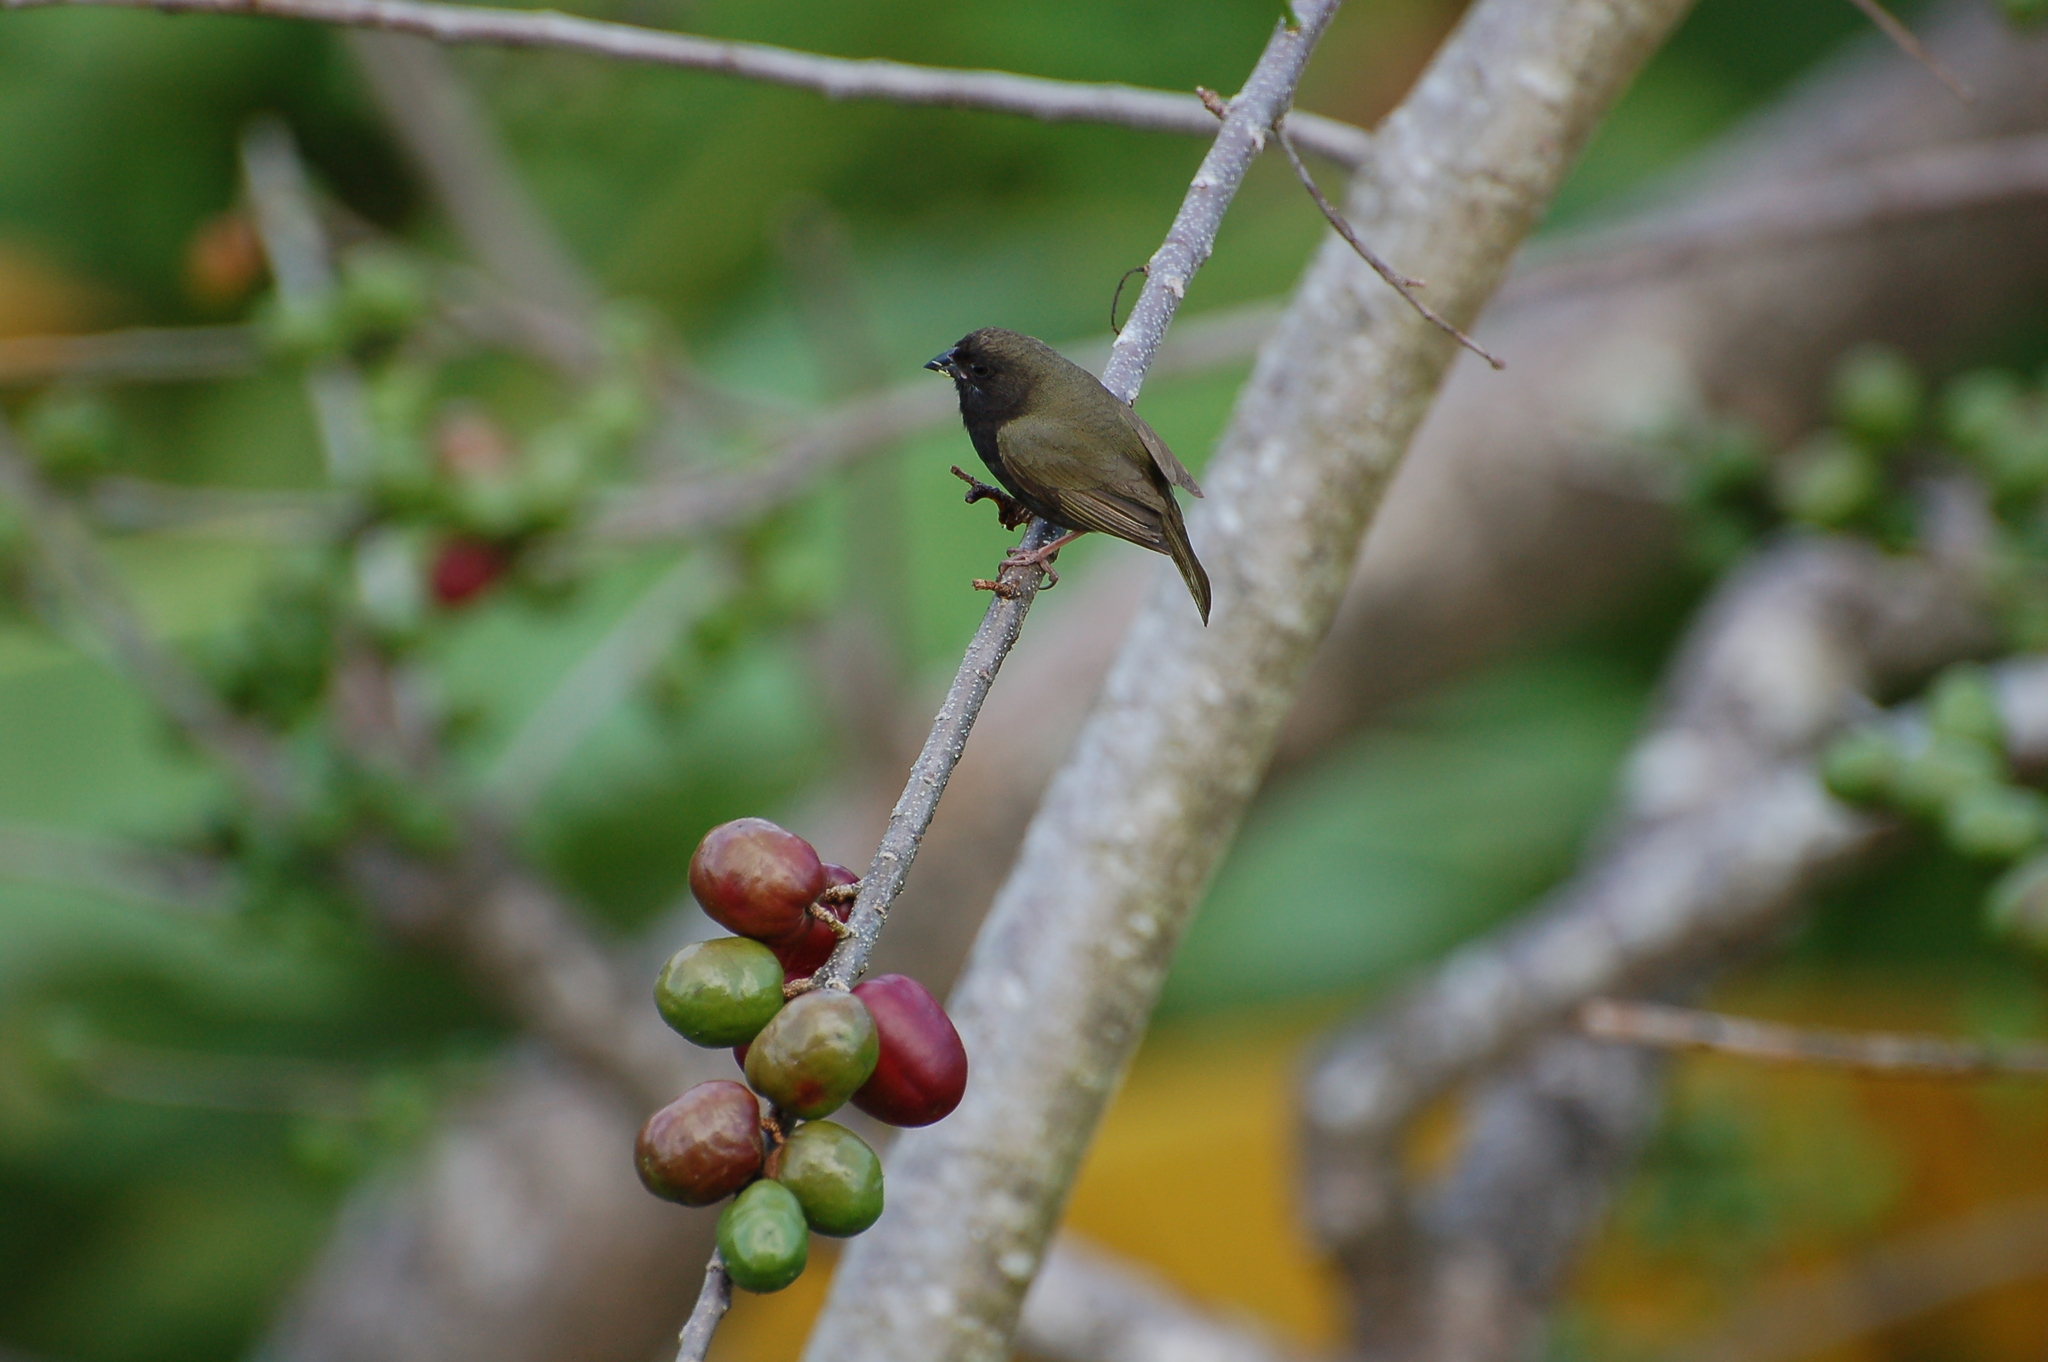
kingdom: Animalia
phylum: Chordata
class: Aves
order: Passeriformes
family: Thraupidae
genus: Melanospiza
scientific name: Melanospiza bicolor
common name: Black-faced grassquit
